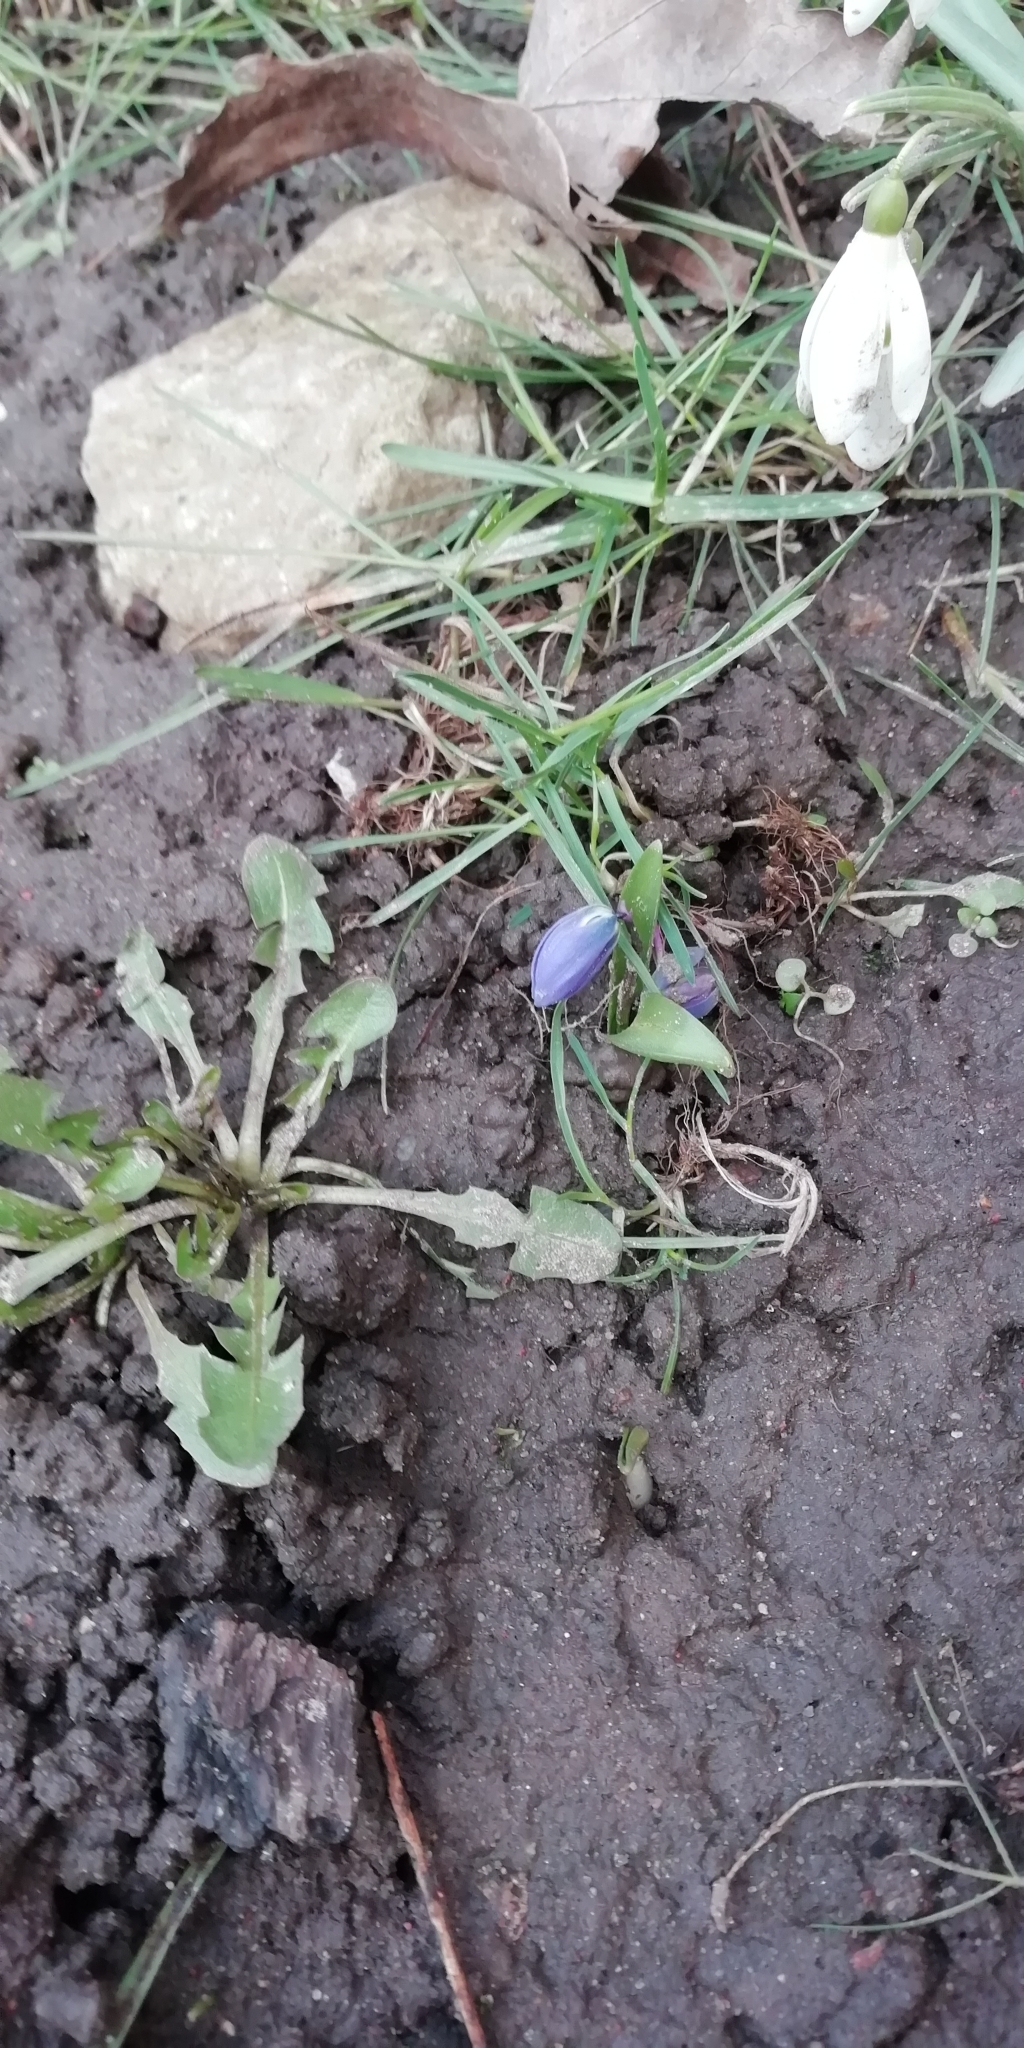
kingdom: Plantae
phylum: Tracheophyta
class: Liliopsida
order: Asparagales
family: Asparagaceae
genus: Scilla
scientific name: Scilla siberica
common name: Siberian squill
